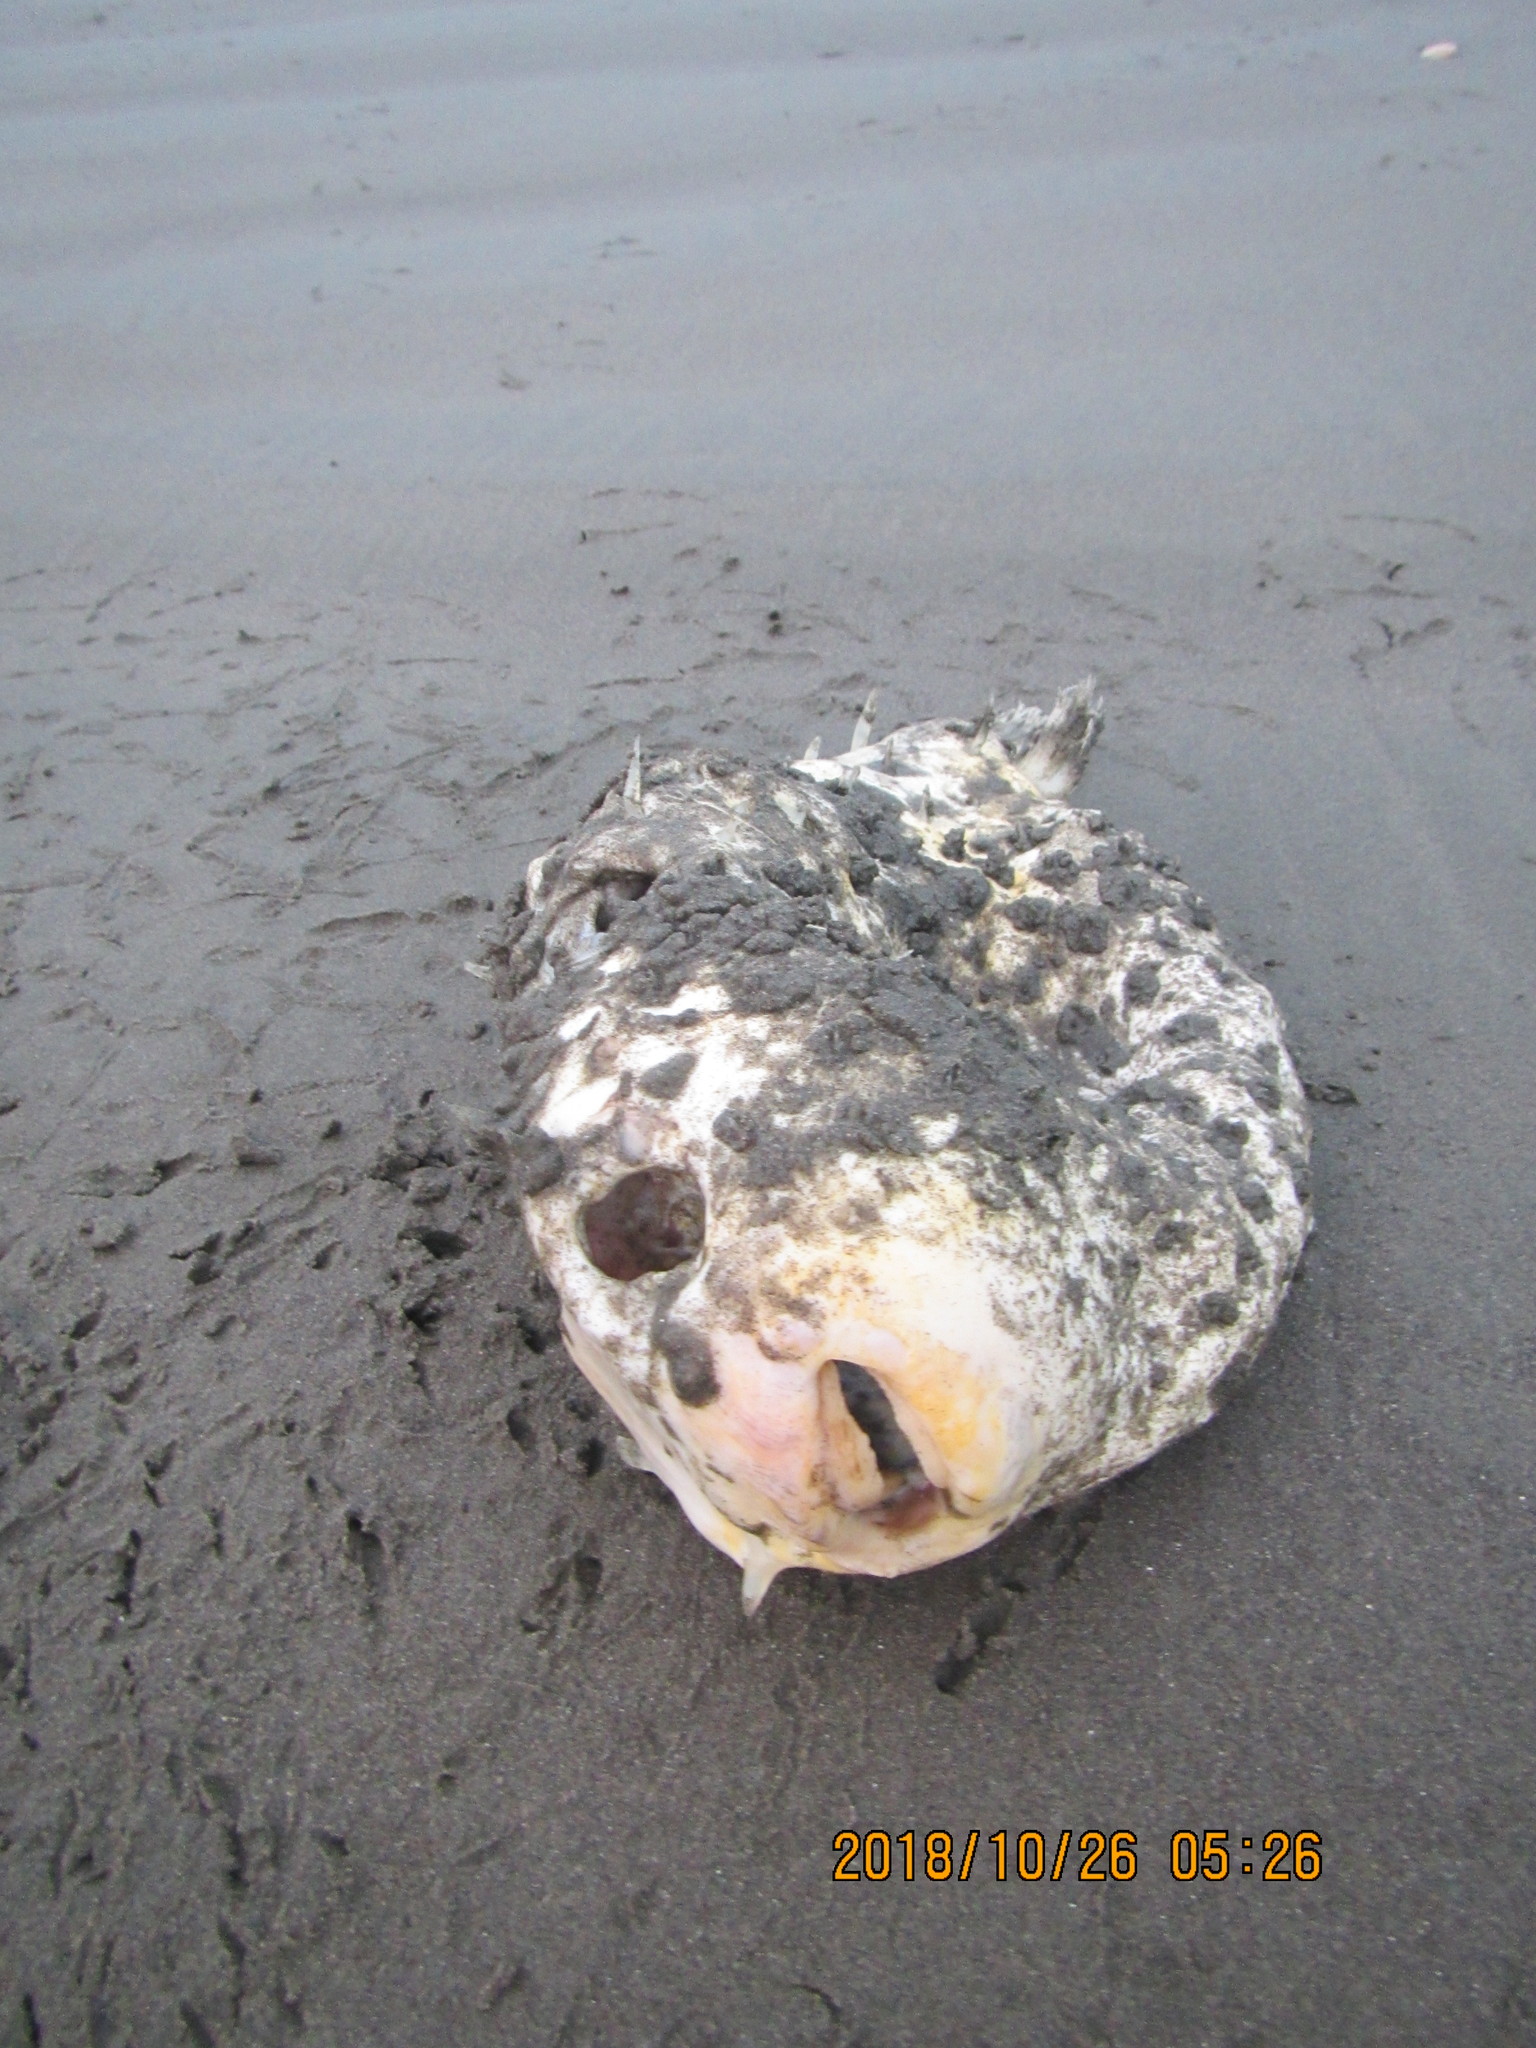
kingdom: Animalia
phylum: Chordata
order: Tetraodontiformes
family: Diodontidae
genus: Allomycterus
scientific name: Allomycterus pilatus
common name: No common name
